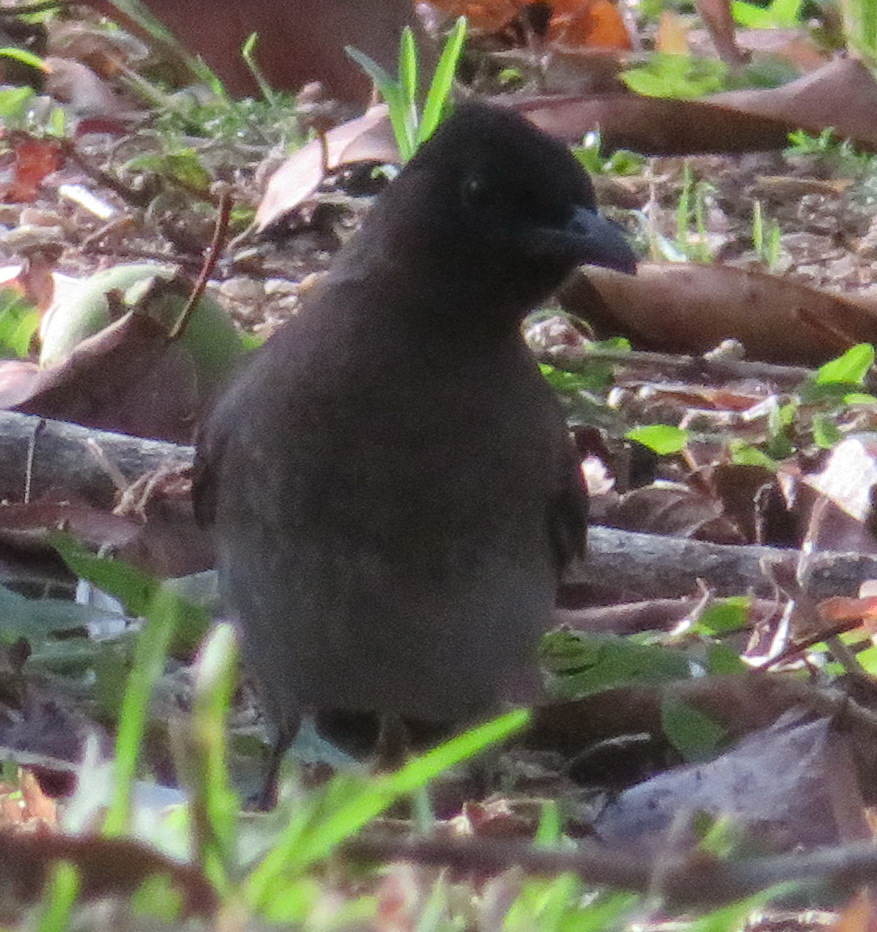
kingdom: Animalia
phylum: Chordata
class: Aves
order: Passeriformes
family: Pycnonotidae
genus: Pycnonotus
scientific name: Pycnonotus barbatus
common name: Common bulbul
